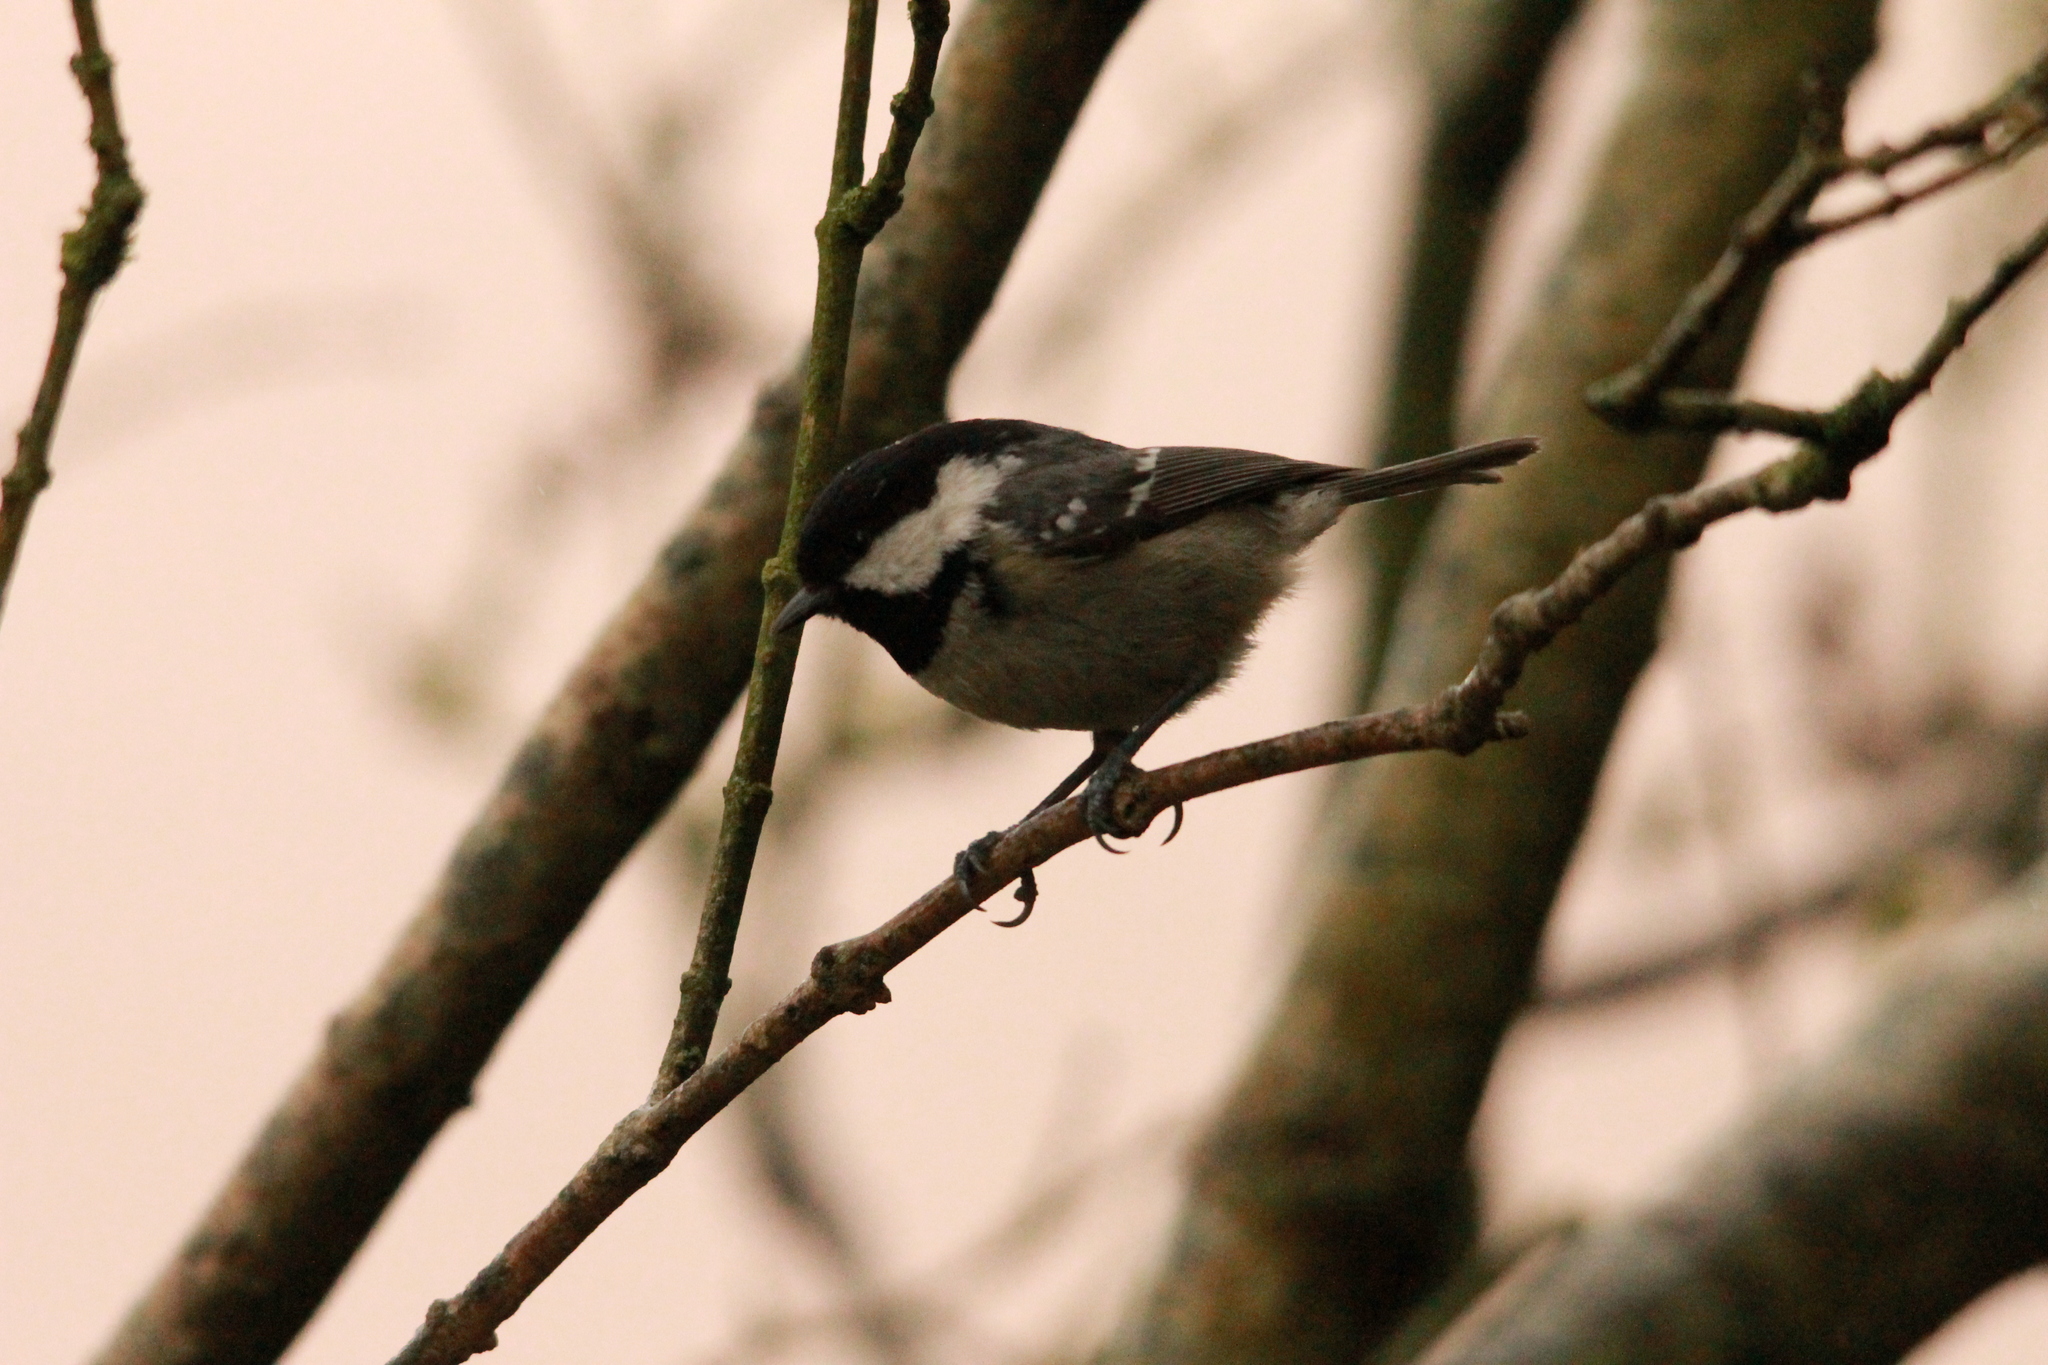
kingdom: Animalia
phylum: Chordata
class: Aves
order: Passeriformes
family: Paridae
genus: Periparus
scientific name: Periparus ater
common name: Coal tit
